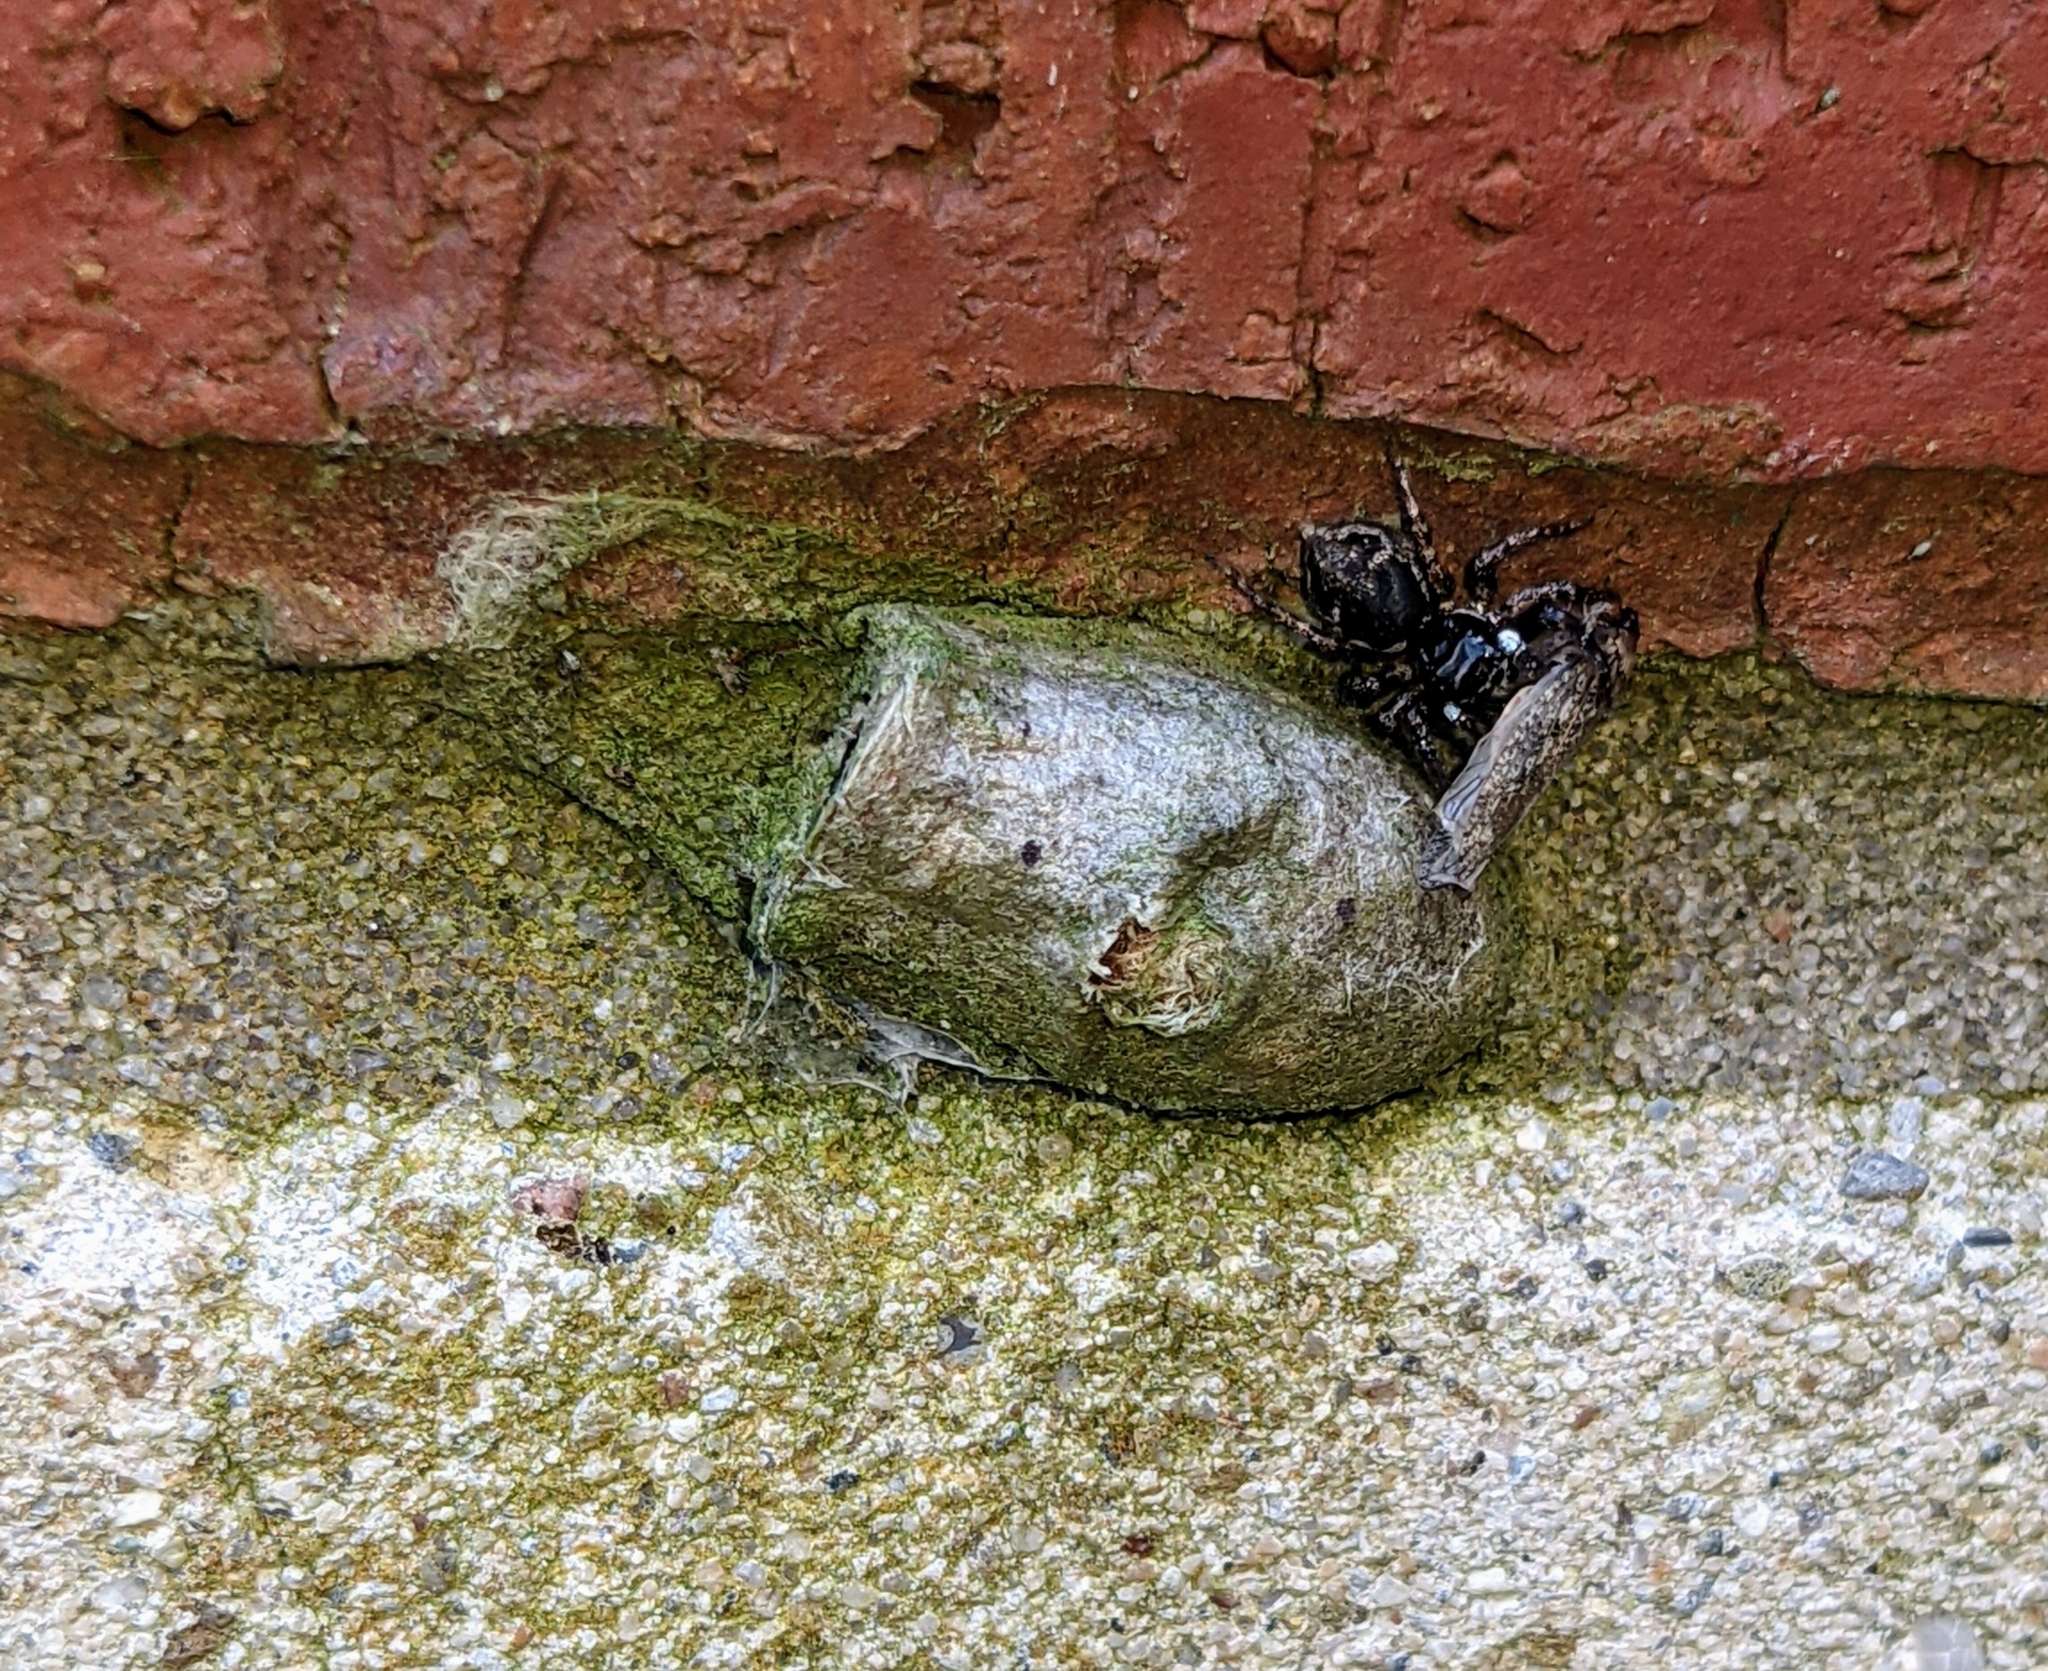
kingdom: Animalia
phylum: Arthropoda
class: Arachnida
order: Araneae
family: Salticidae
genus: Anasaitis
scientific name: Anasaitis canosa
